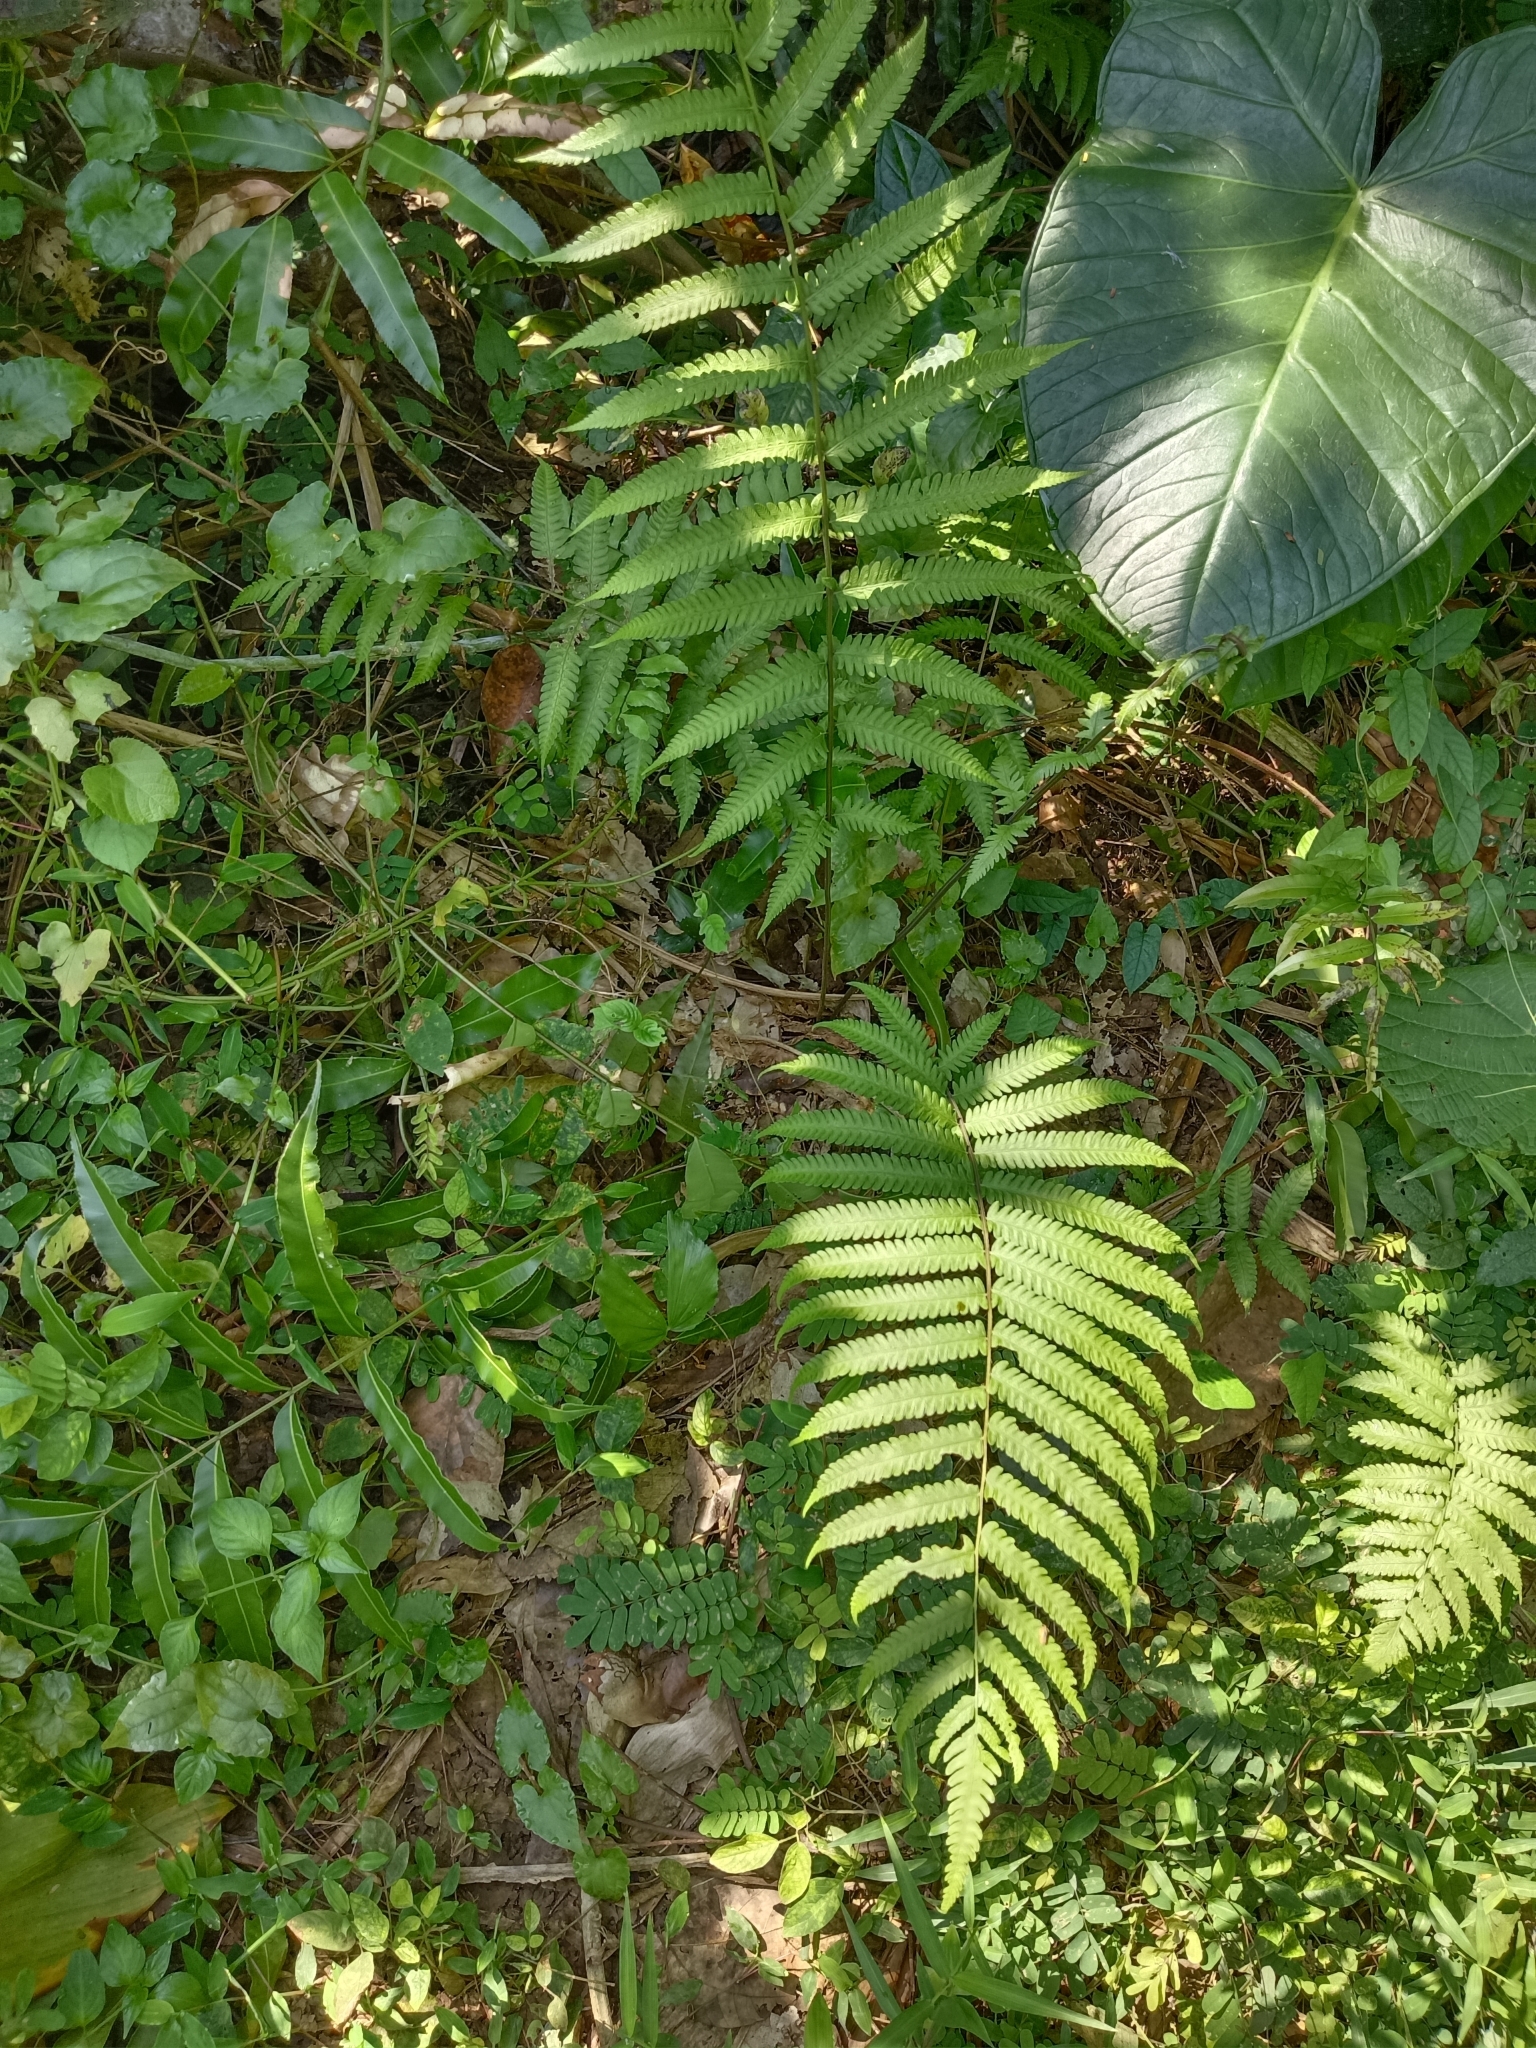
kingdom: Plantae
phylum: Tracheophyta
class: Polypodiopsida
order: Polypodiales
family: Thelypteridaceae
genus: Cyclosorus
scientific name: Cyclosorus interruptus
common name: Neke fern
